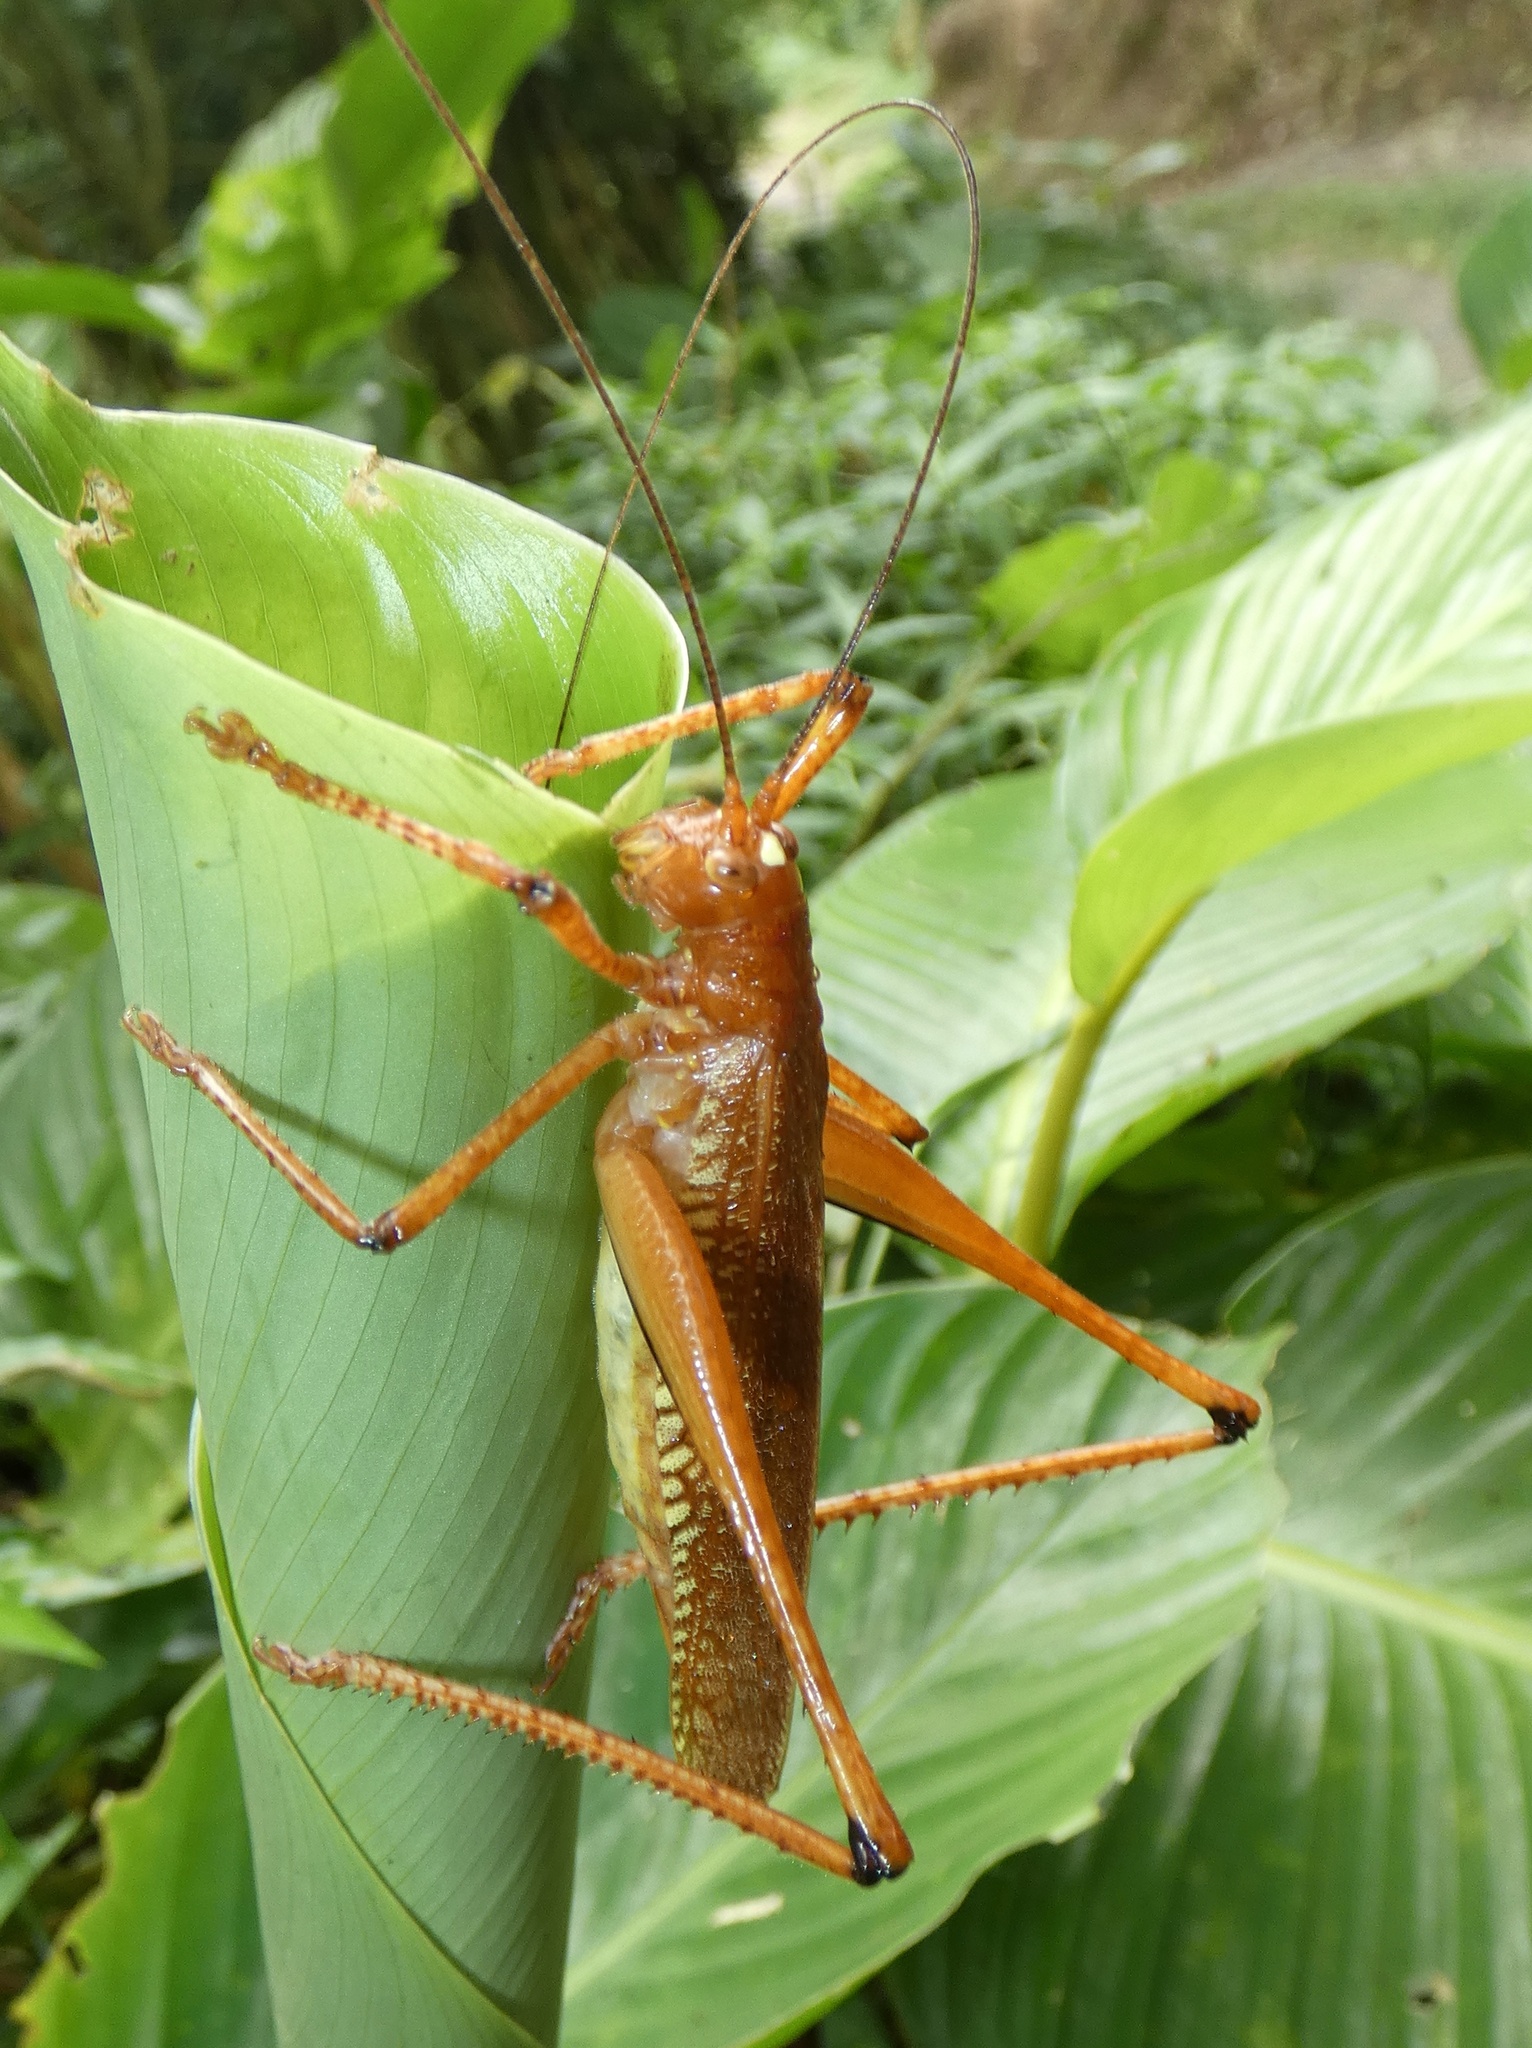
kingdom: Animalia
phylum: Arthropoda
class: Insecta
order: Orthoptera
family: Tettigoniidae
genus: Ischnomela
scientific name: Ischnomela gracilis
